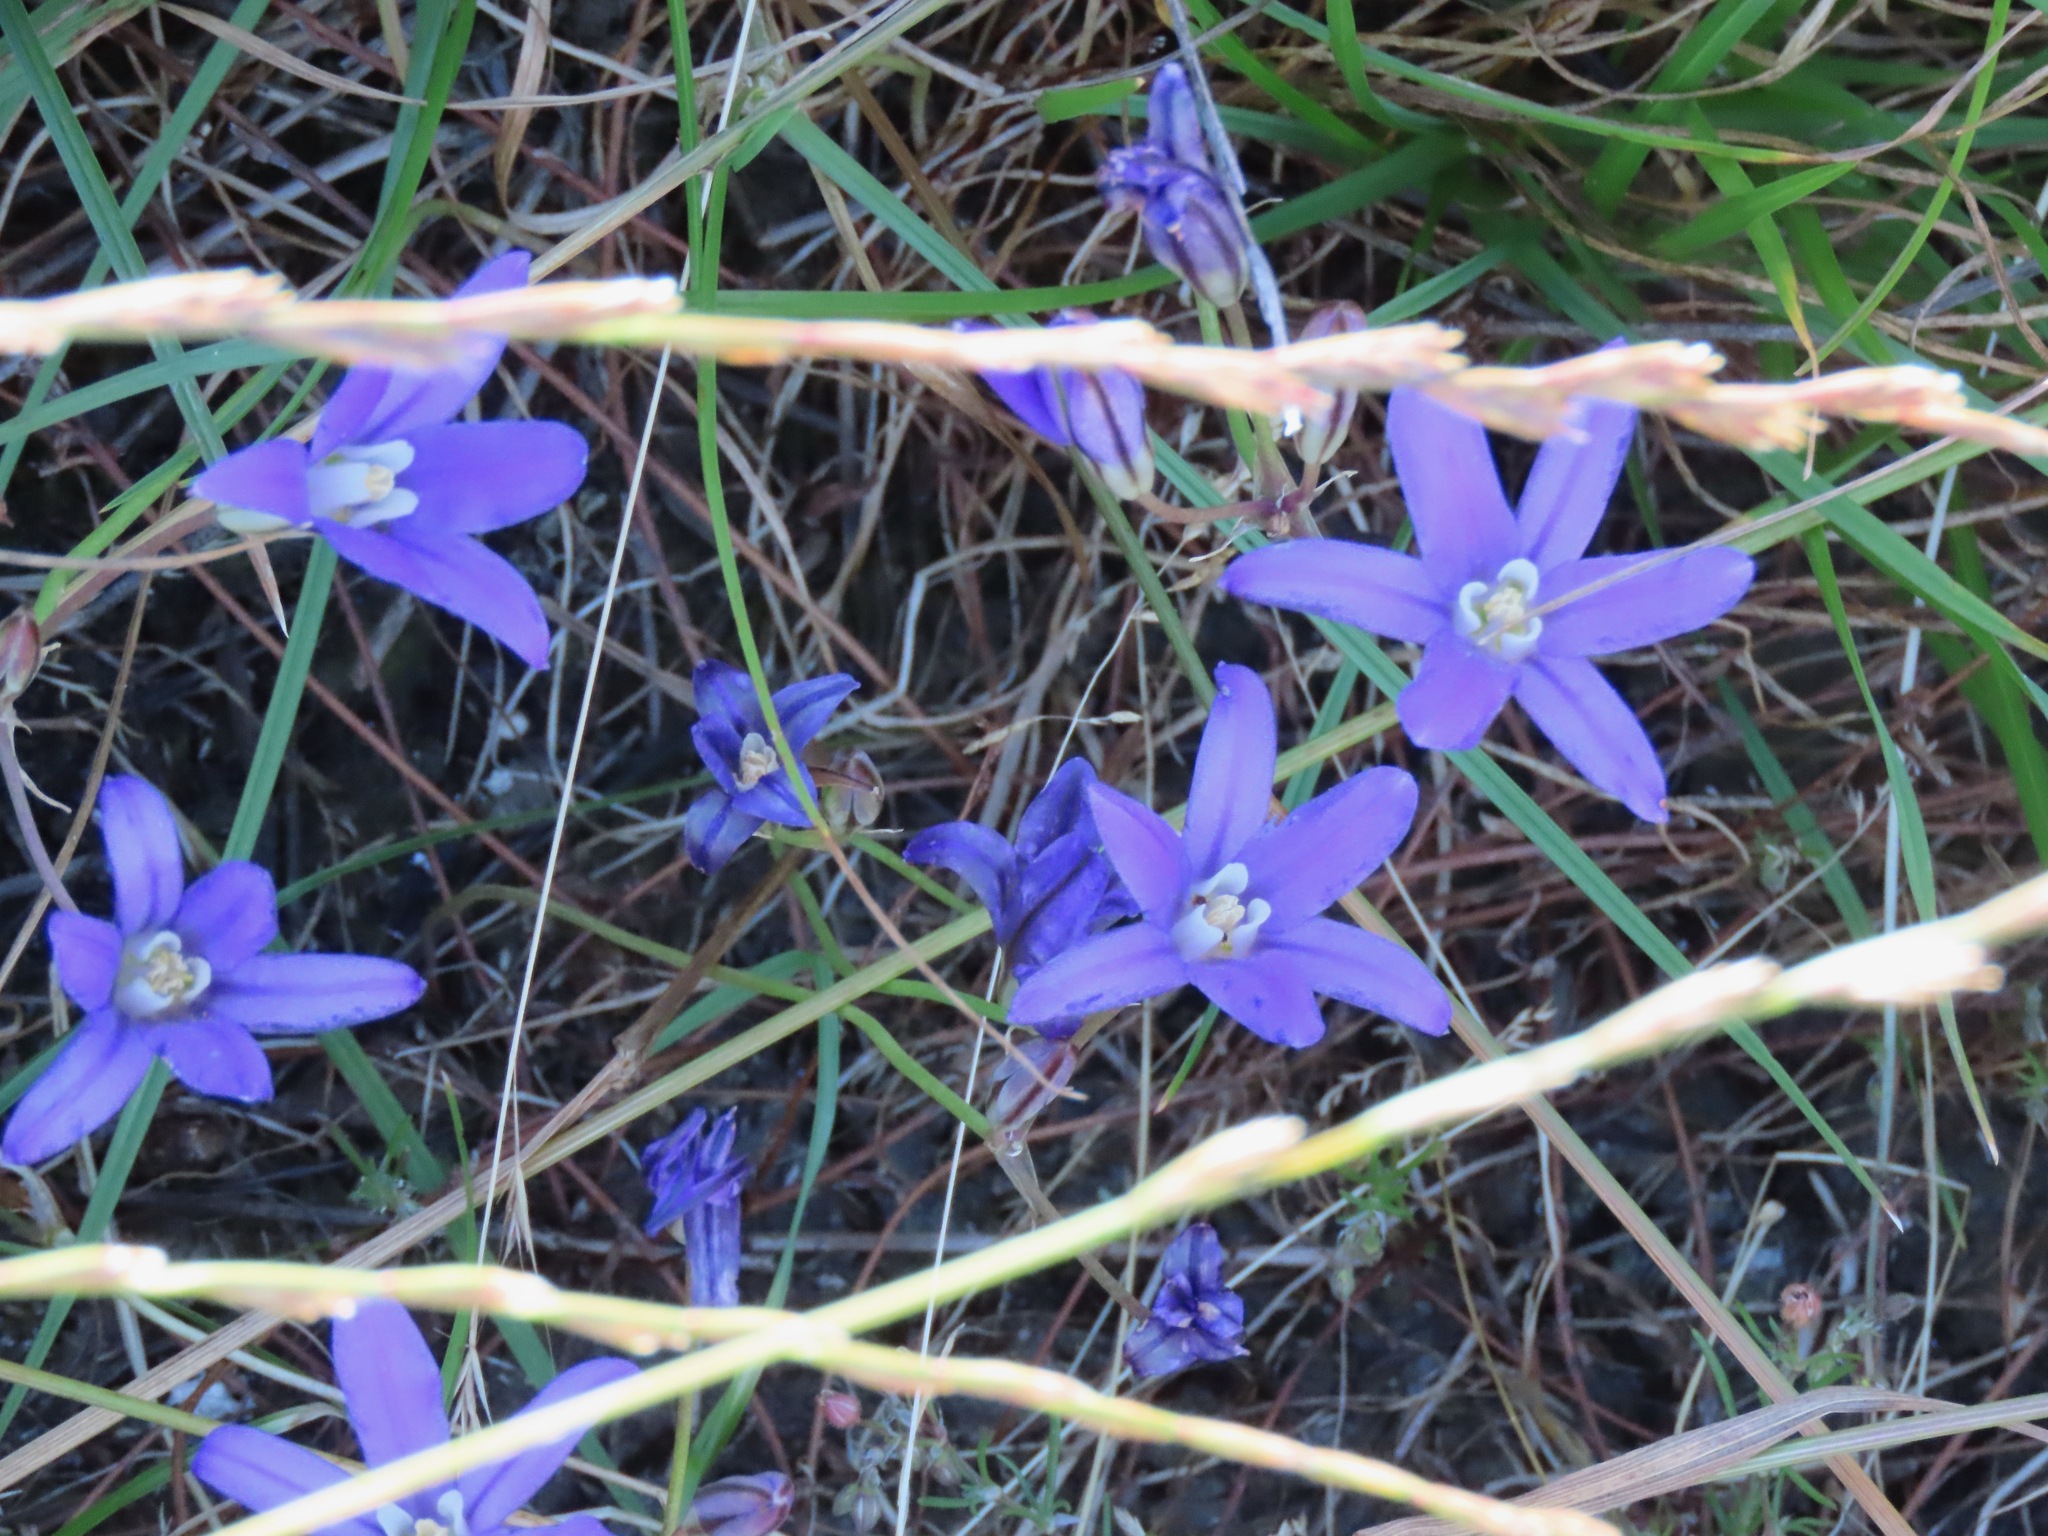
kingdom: Plantae
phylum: Tracheophyta
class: Liliopsida
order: Asparagales
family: Asparagaceae
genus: Brodiaea
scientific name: Brodiaea coronaria
